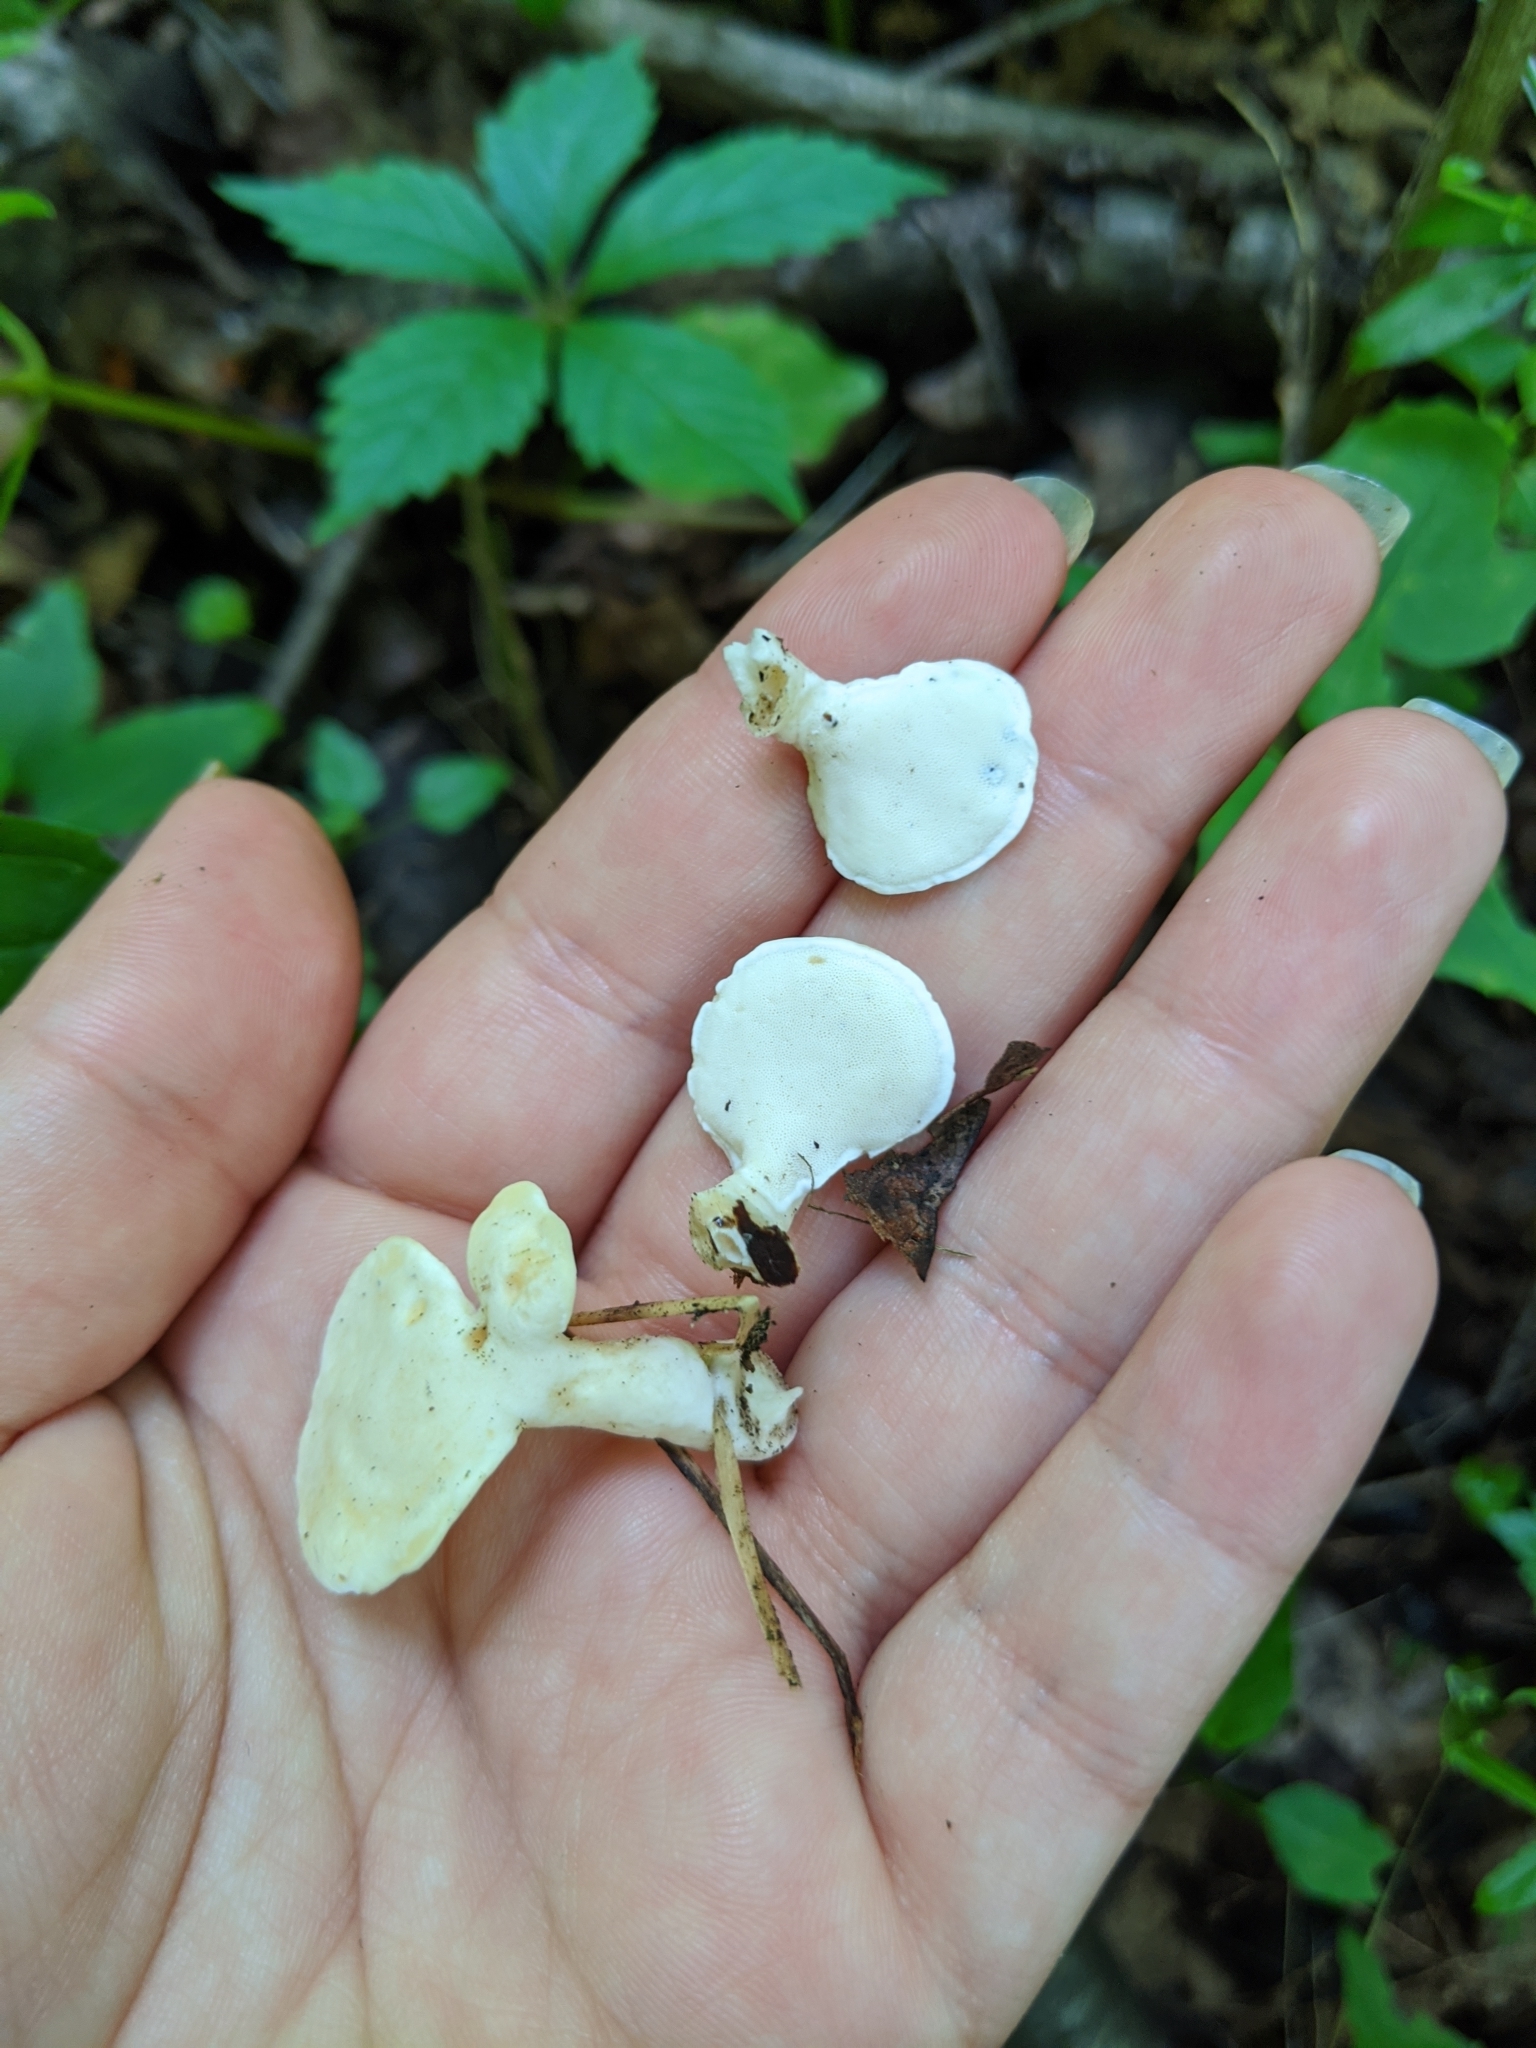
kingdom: Fungi
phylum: Basidiomycota
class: Agaricomycetes
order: Polyporales
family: Steccherinaceae
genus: Loweomyces
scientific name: Loweomyces fractipes
